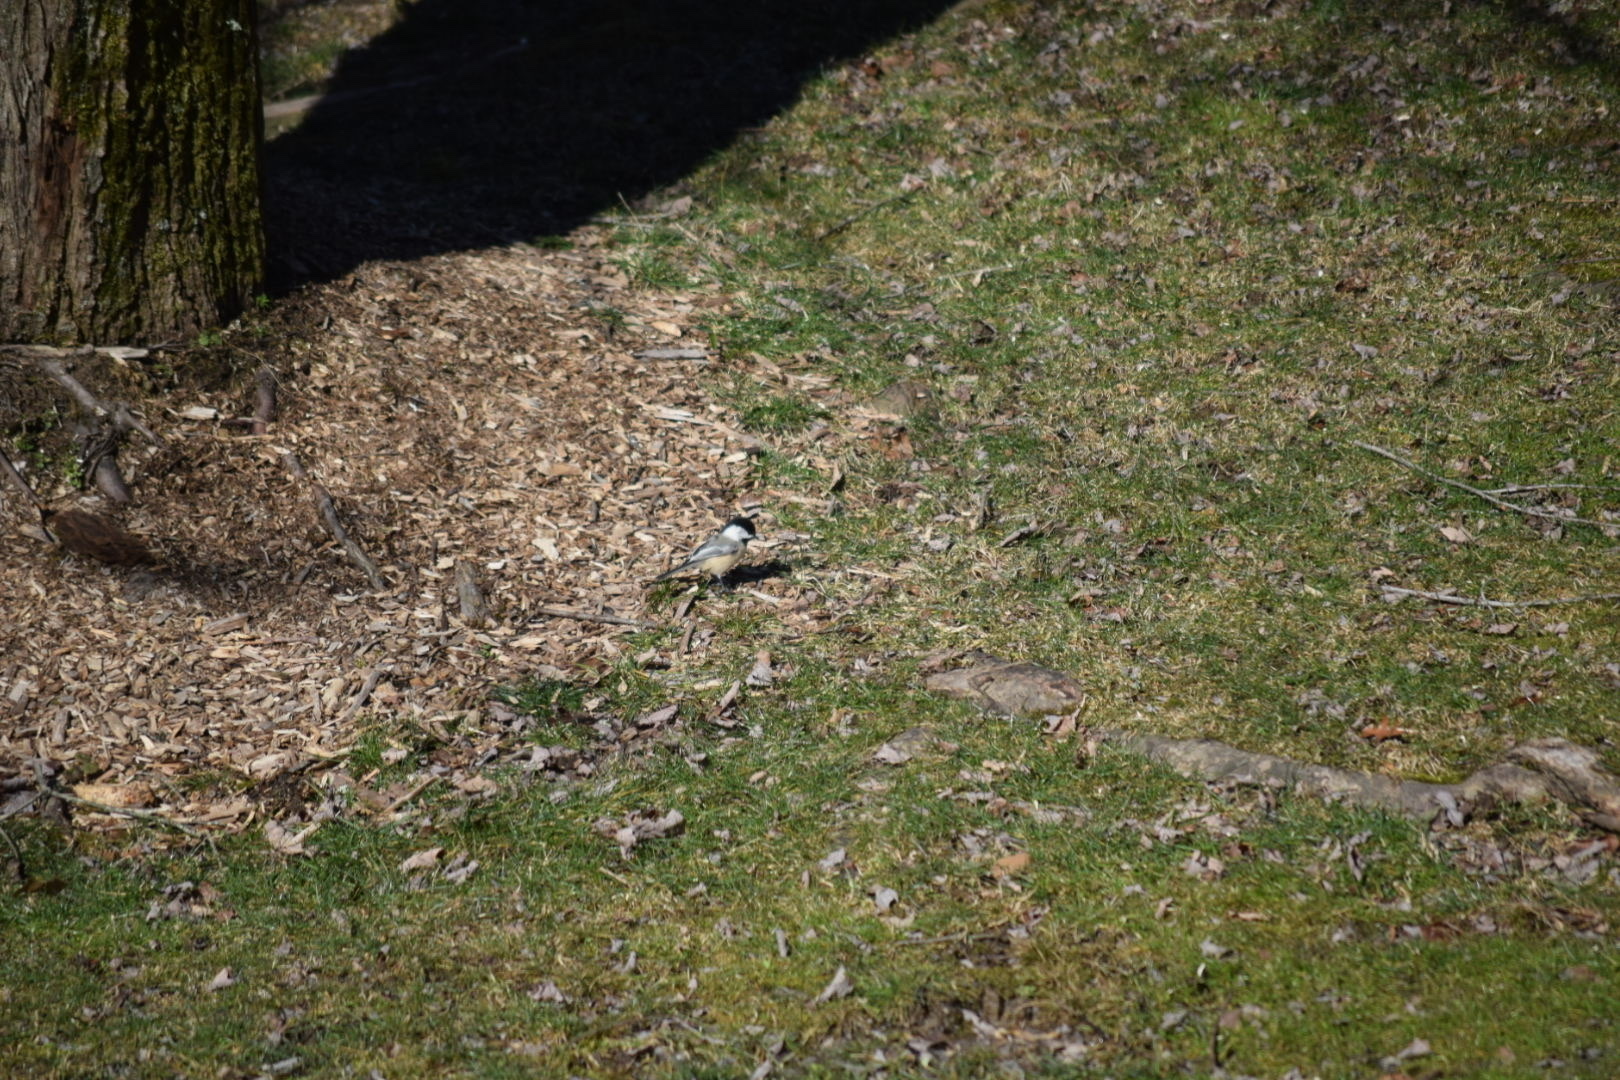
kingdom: Animalia
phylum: Chordata
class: Aves
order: Passeriformes
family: Paridae
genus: Poecile
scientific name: Poecile atricapillus
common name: Black-capped chickadee
